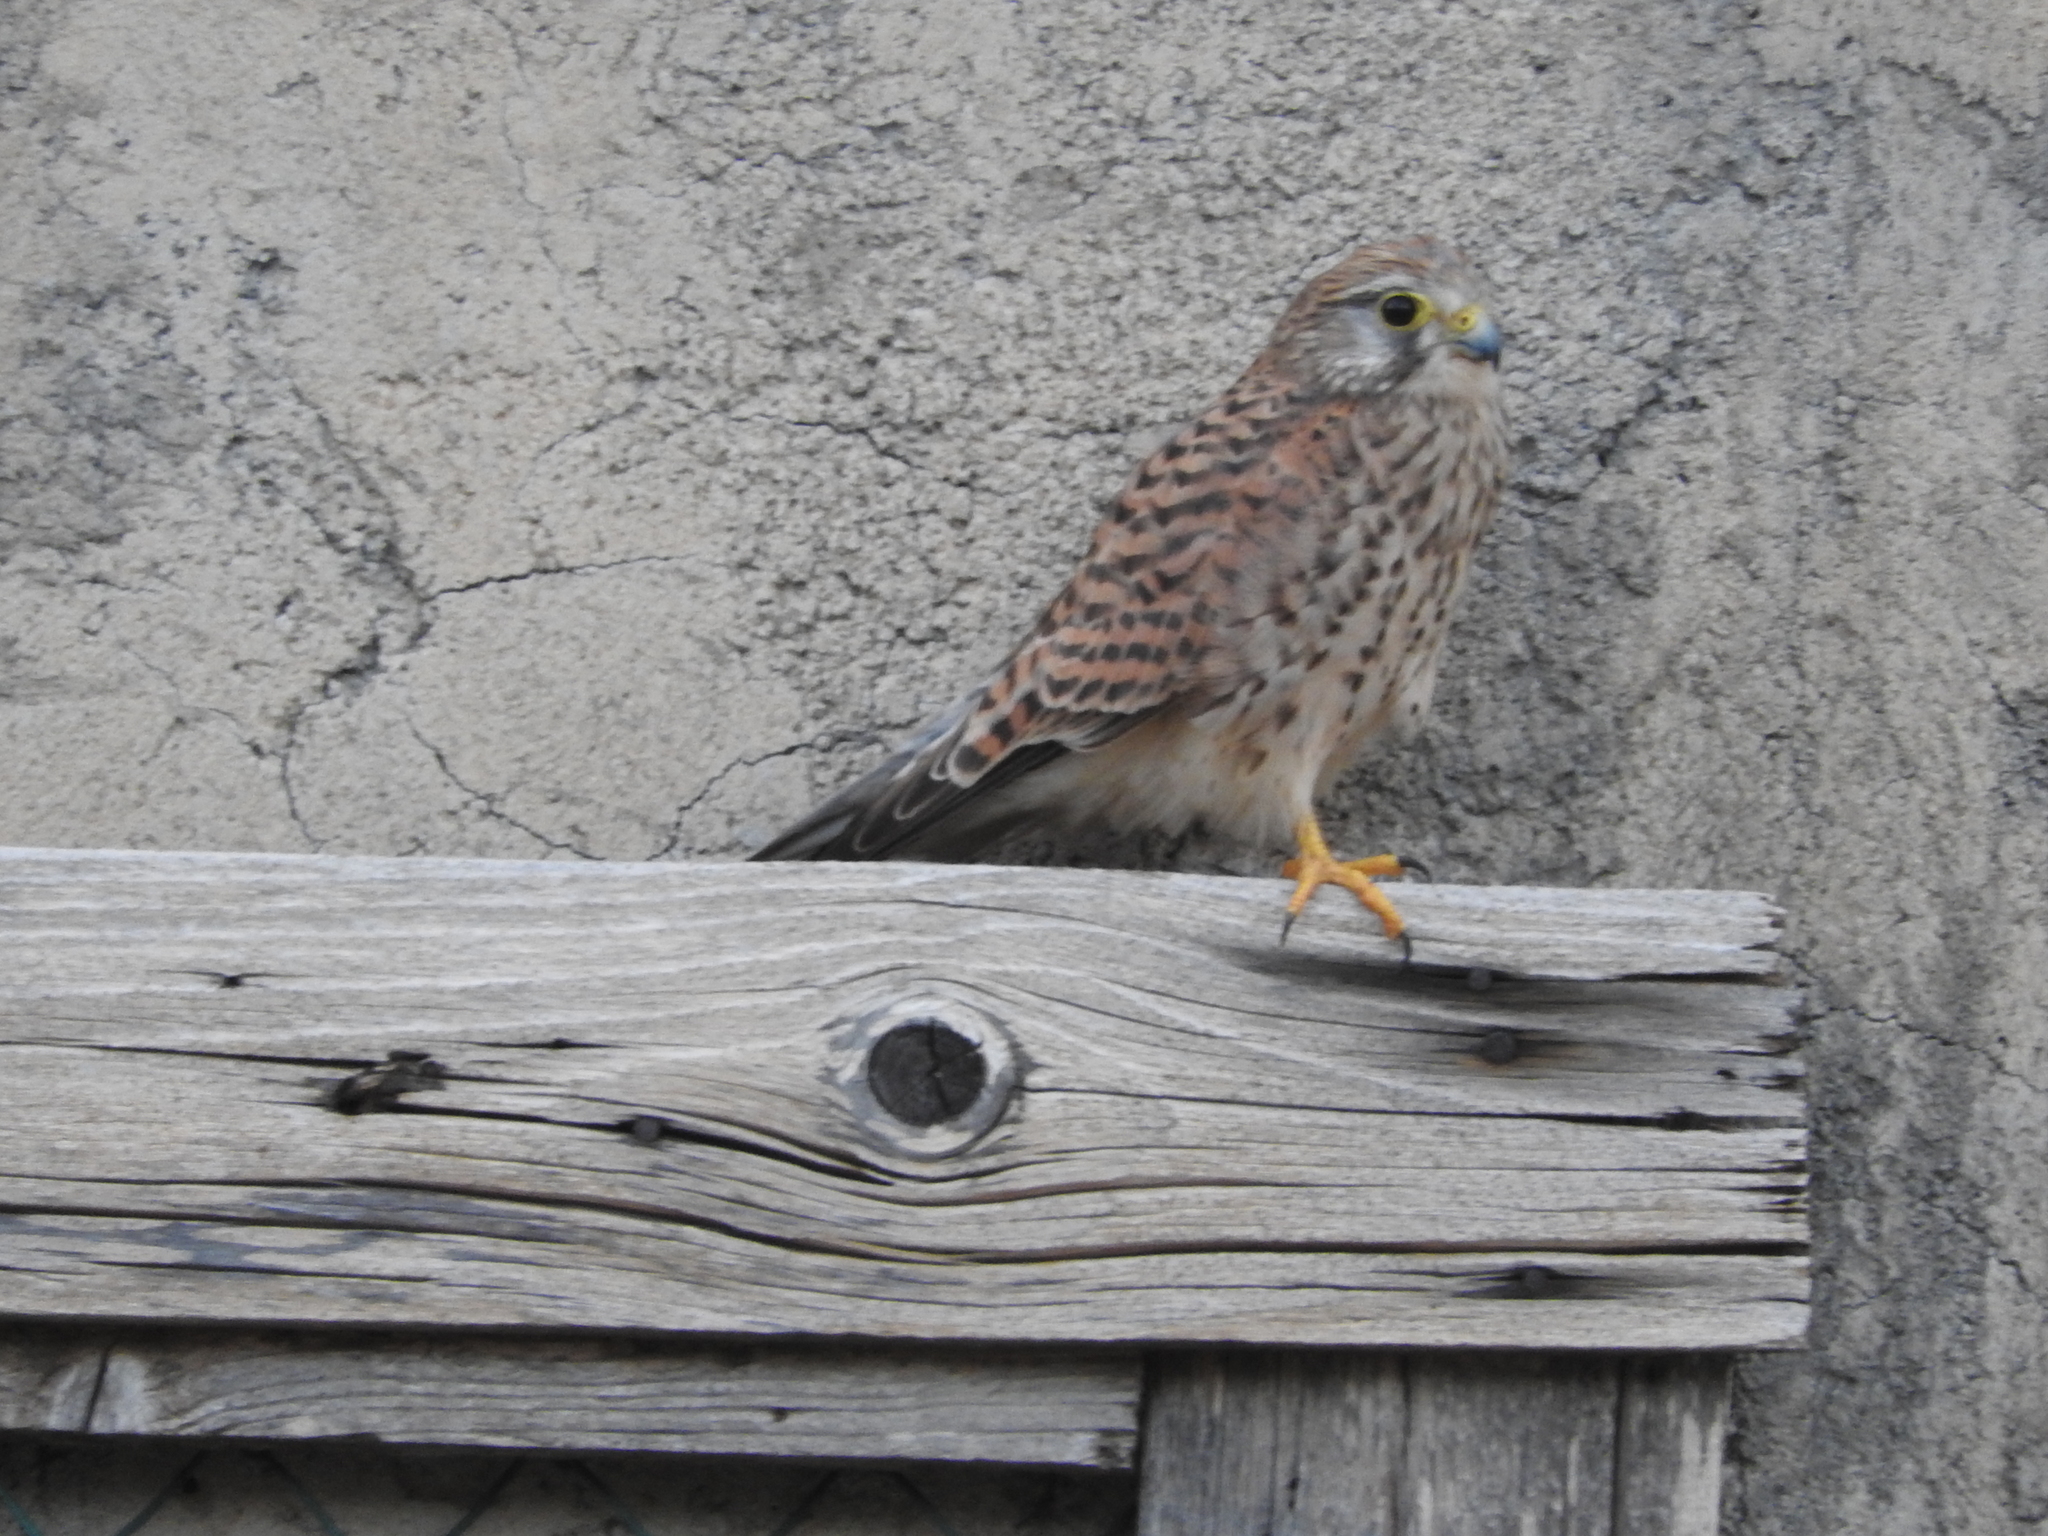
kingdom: Animalia
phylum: Chordata
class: Aves
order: Falconiformes
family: Falconidae
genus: Falco
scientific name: Falco tinnunculus
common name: Common kestrel
